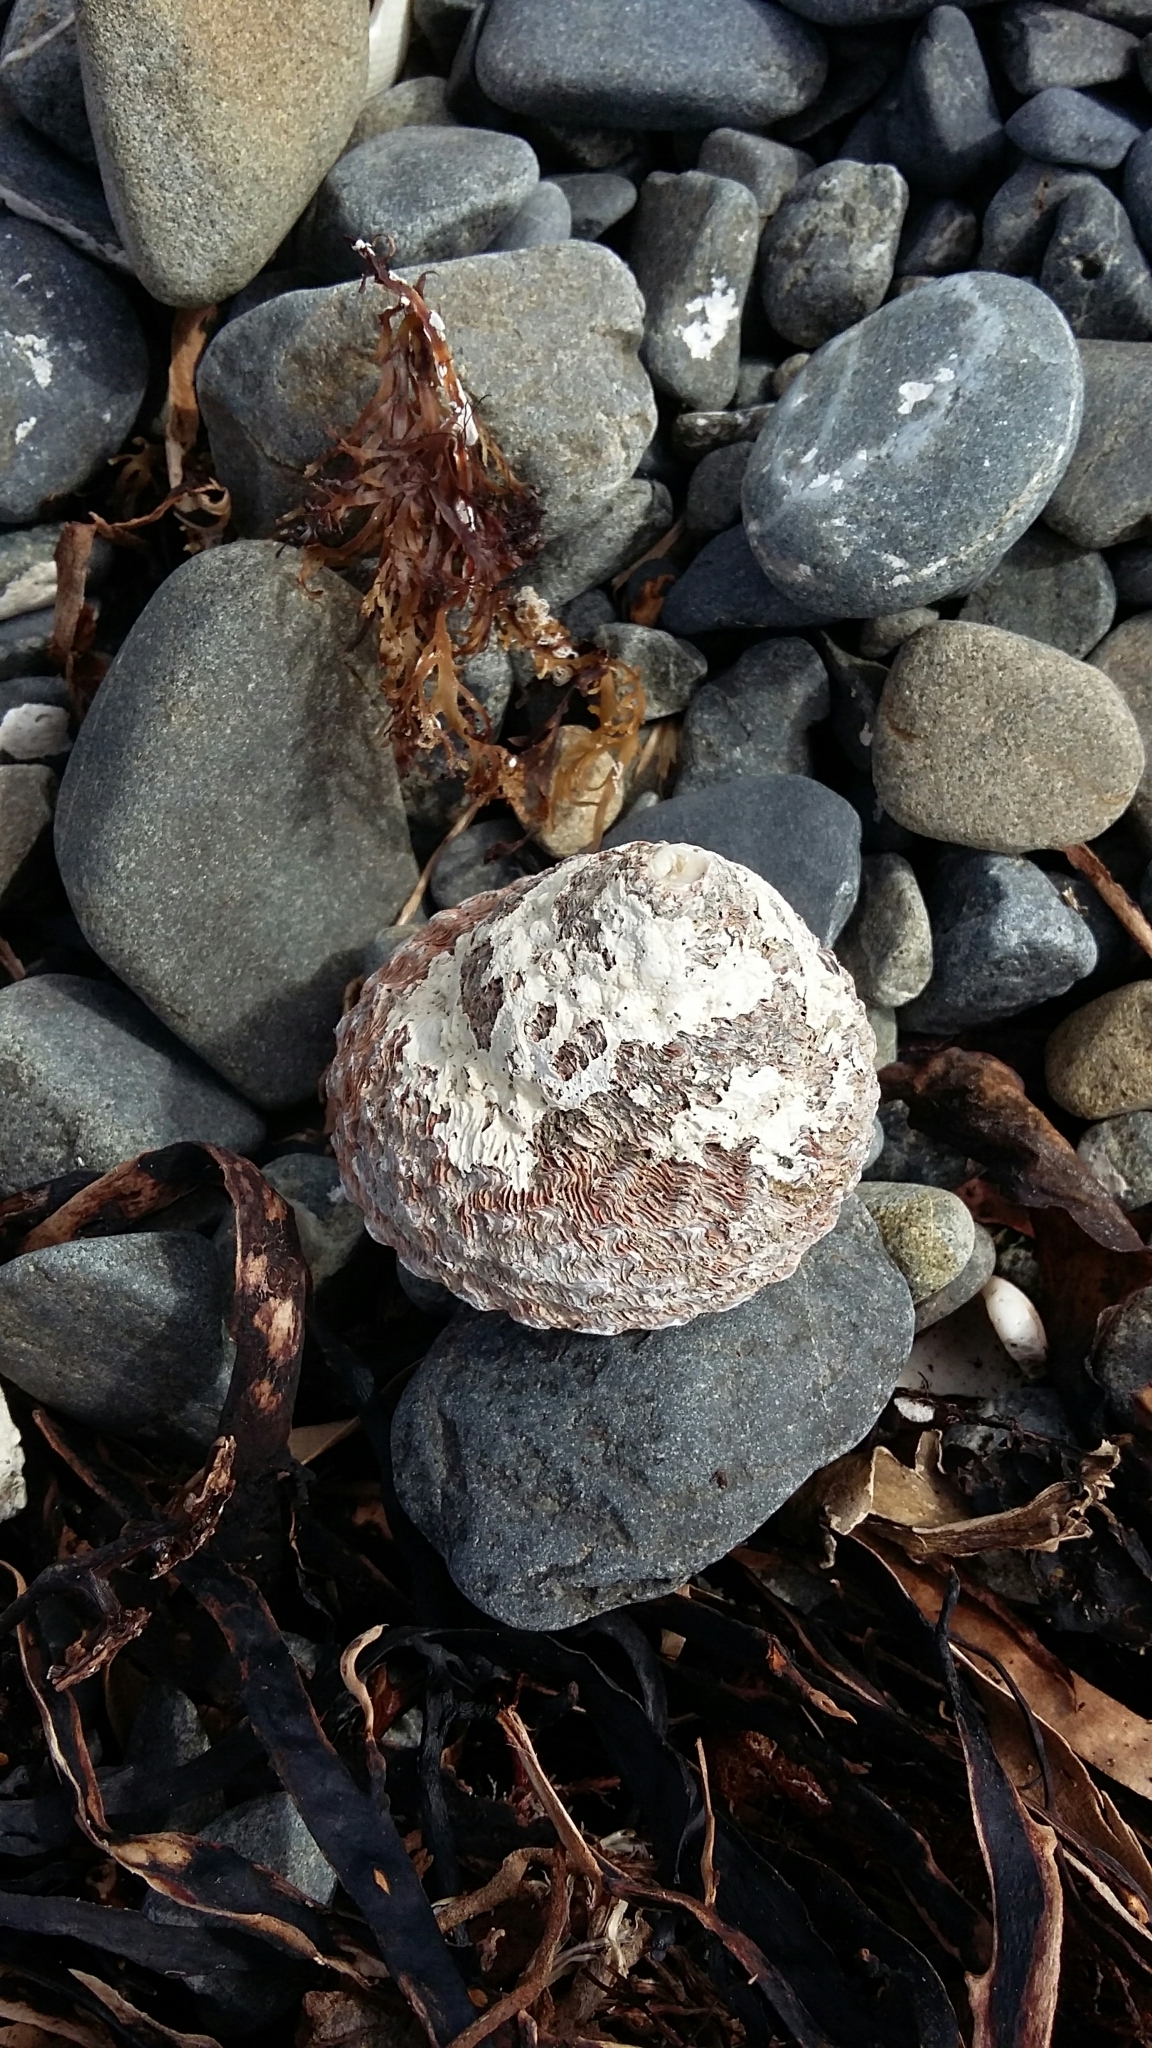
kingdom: Animalia
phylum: Mollusca
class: Gastropoda
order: Trochida
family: Turbinidae
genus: Cookia
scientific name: Cookia sulcata
